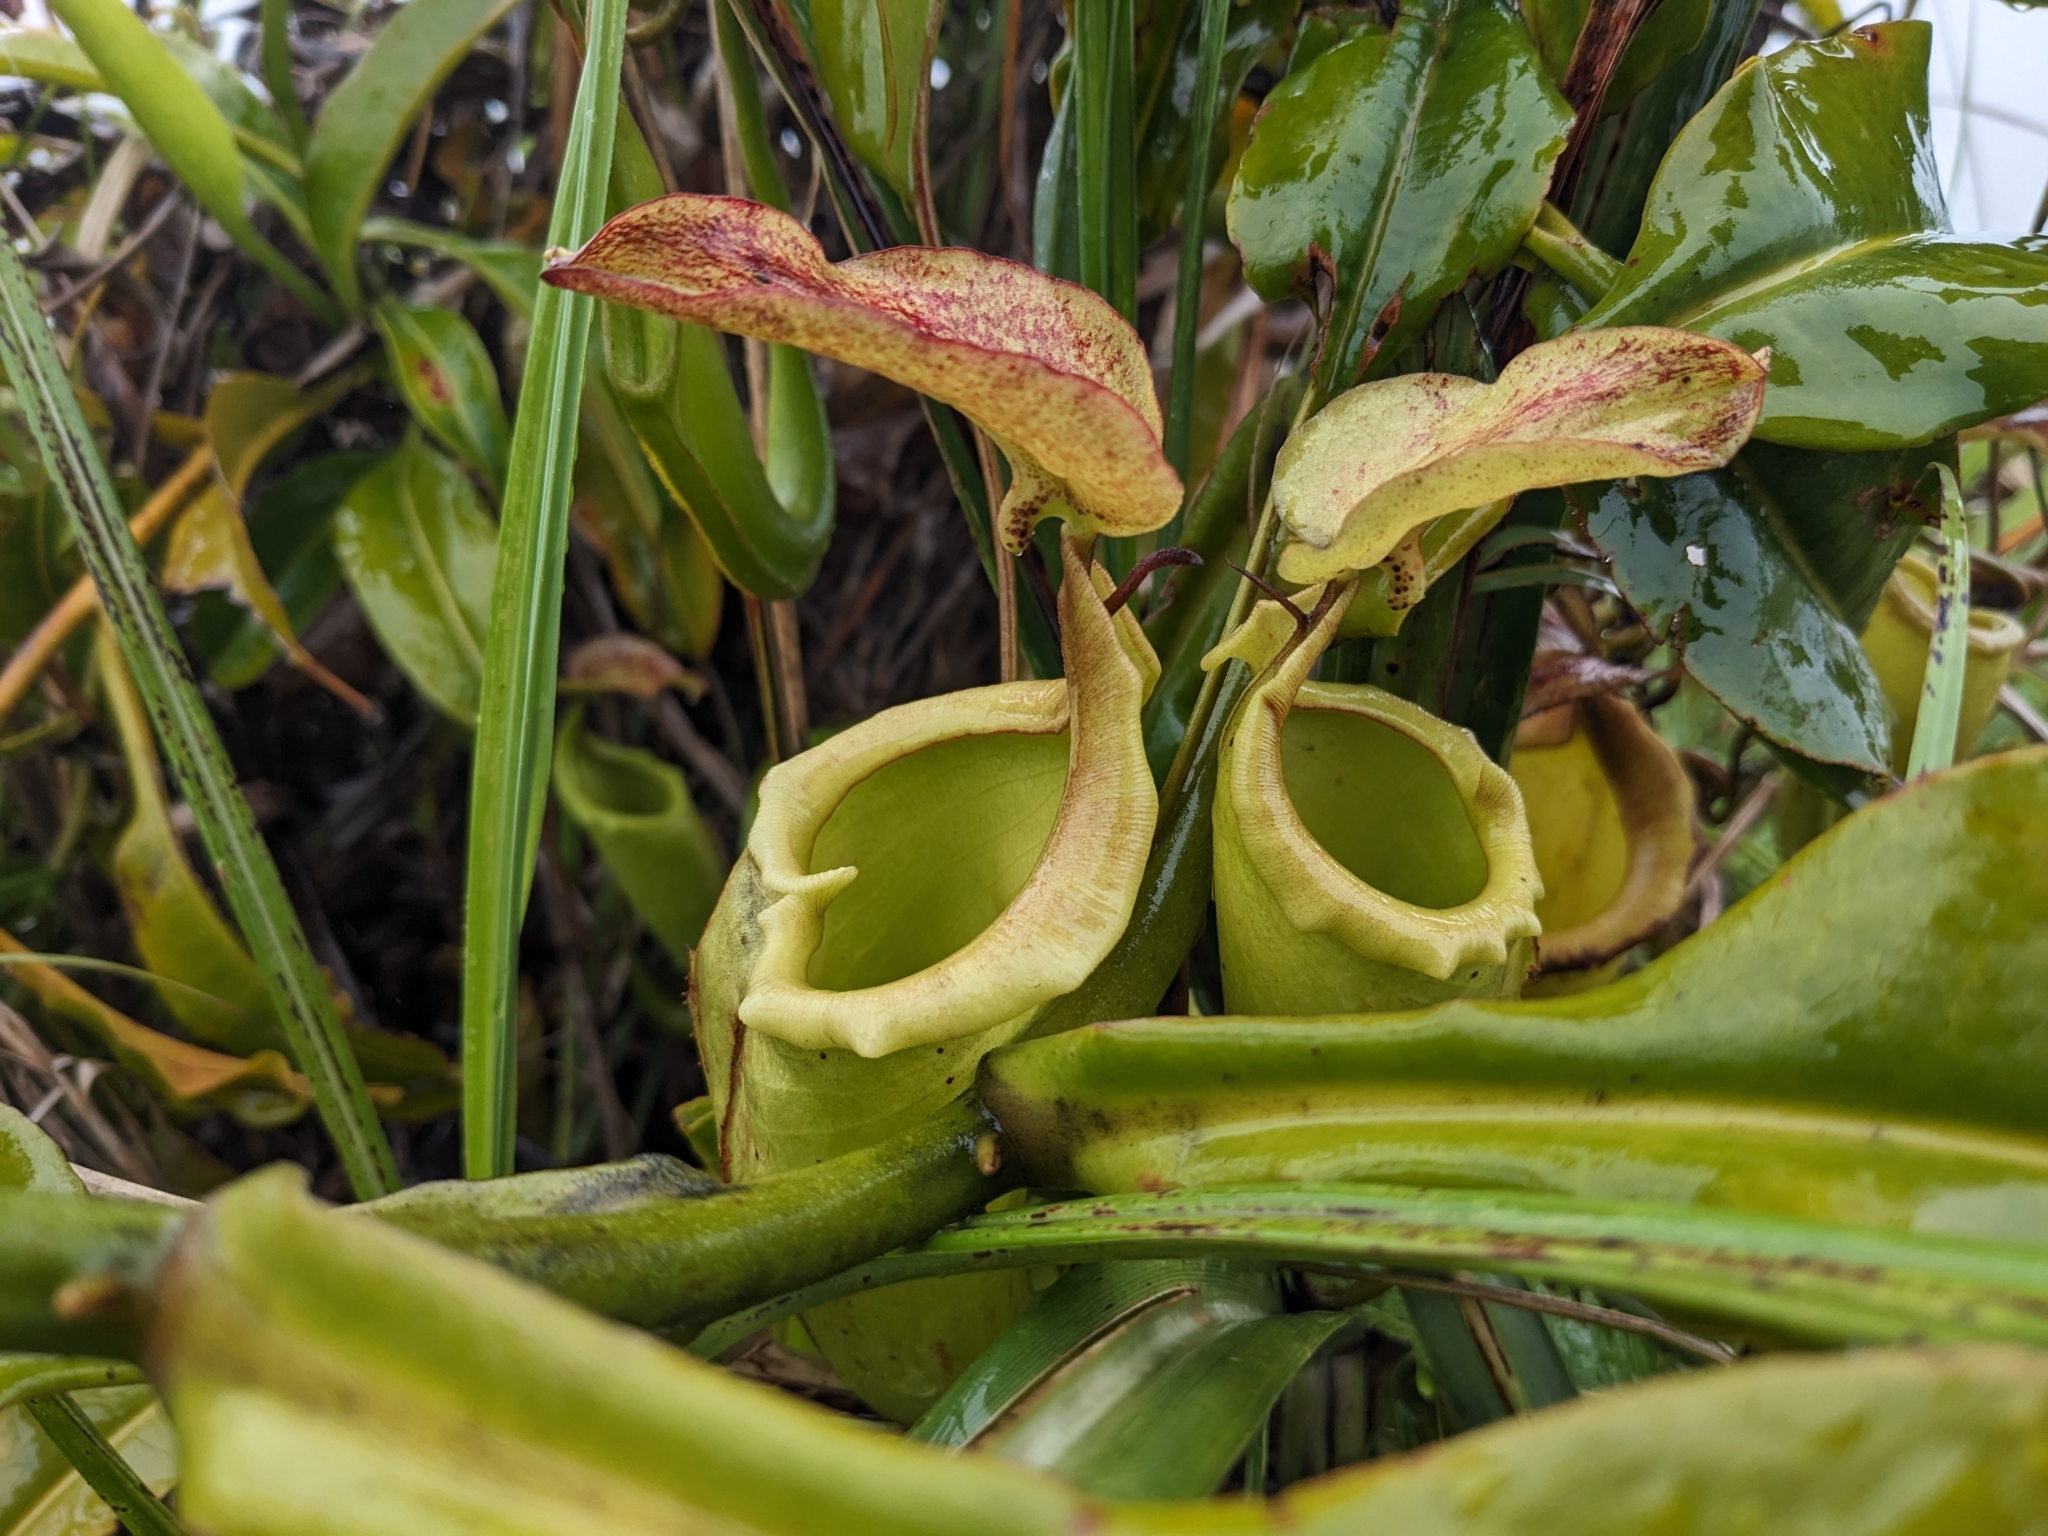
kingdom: Plantae
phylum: Tracheophyta
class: Magnoliopsida
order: Caryophyllales
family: Nepenthaceae
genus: Nepenthes
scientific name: Nepenthes maxima
